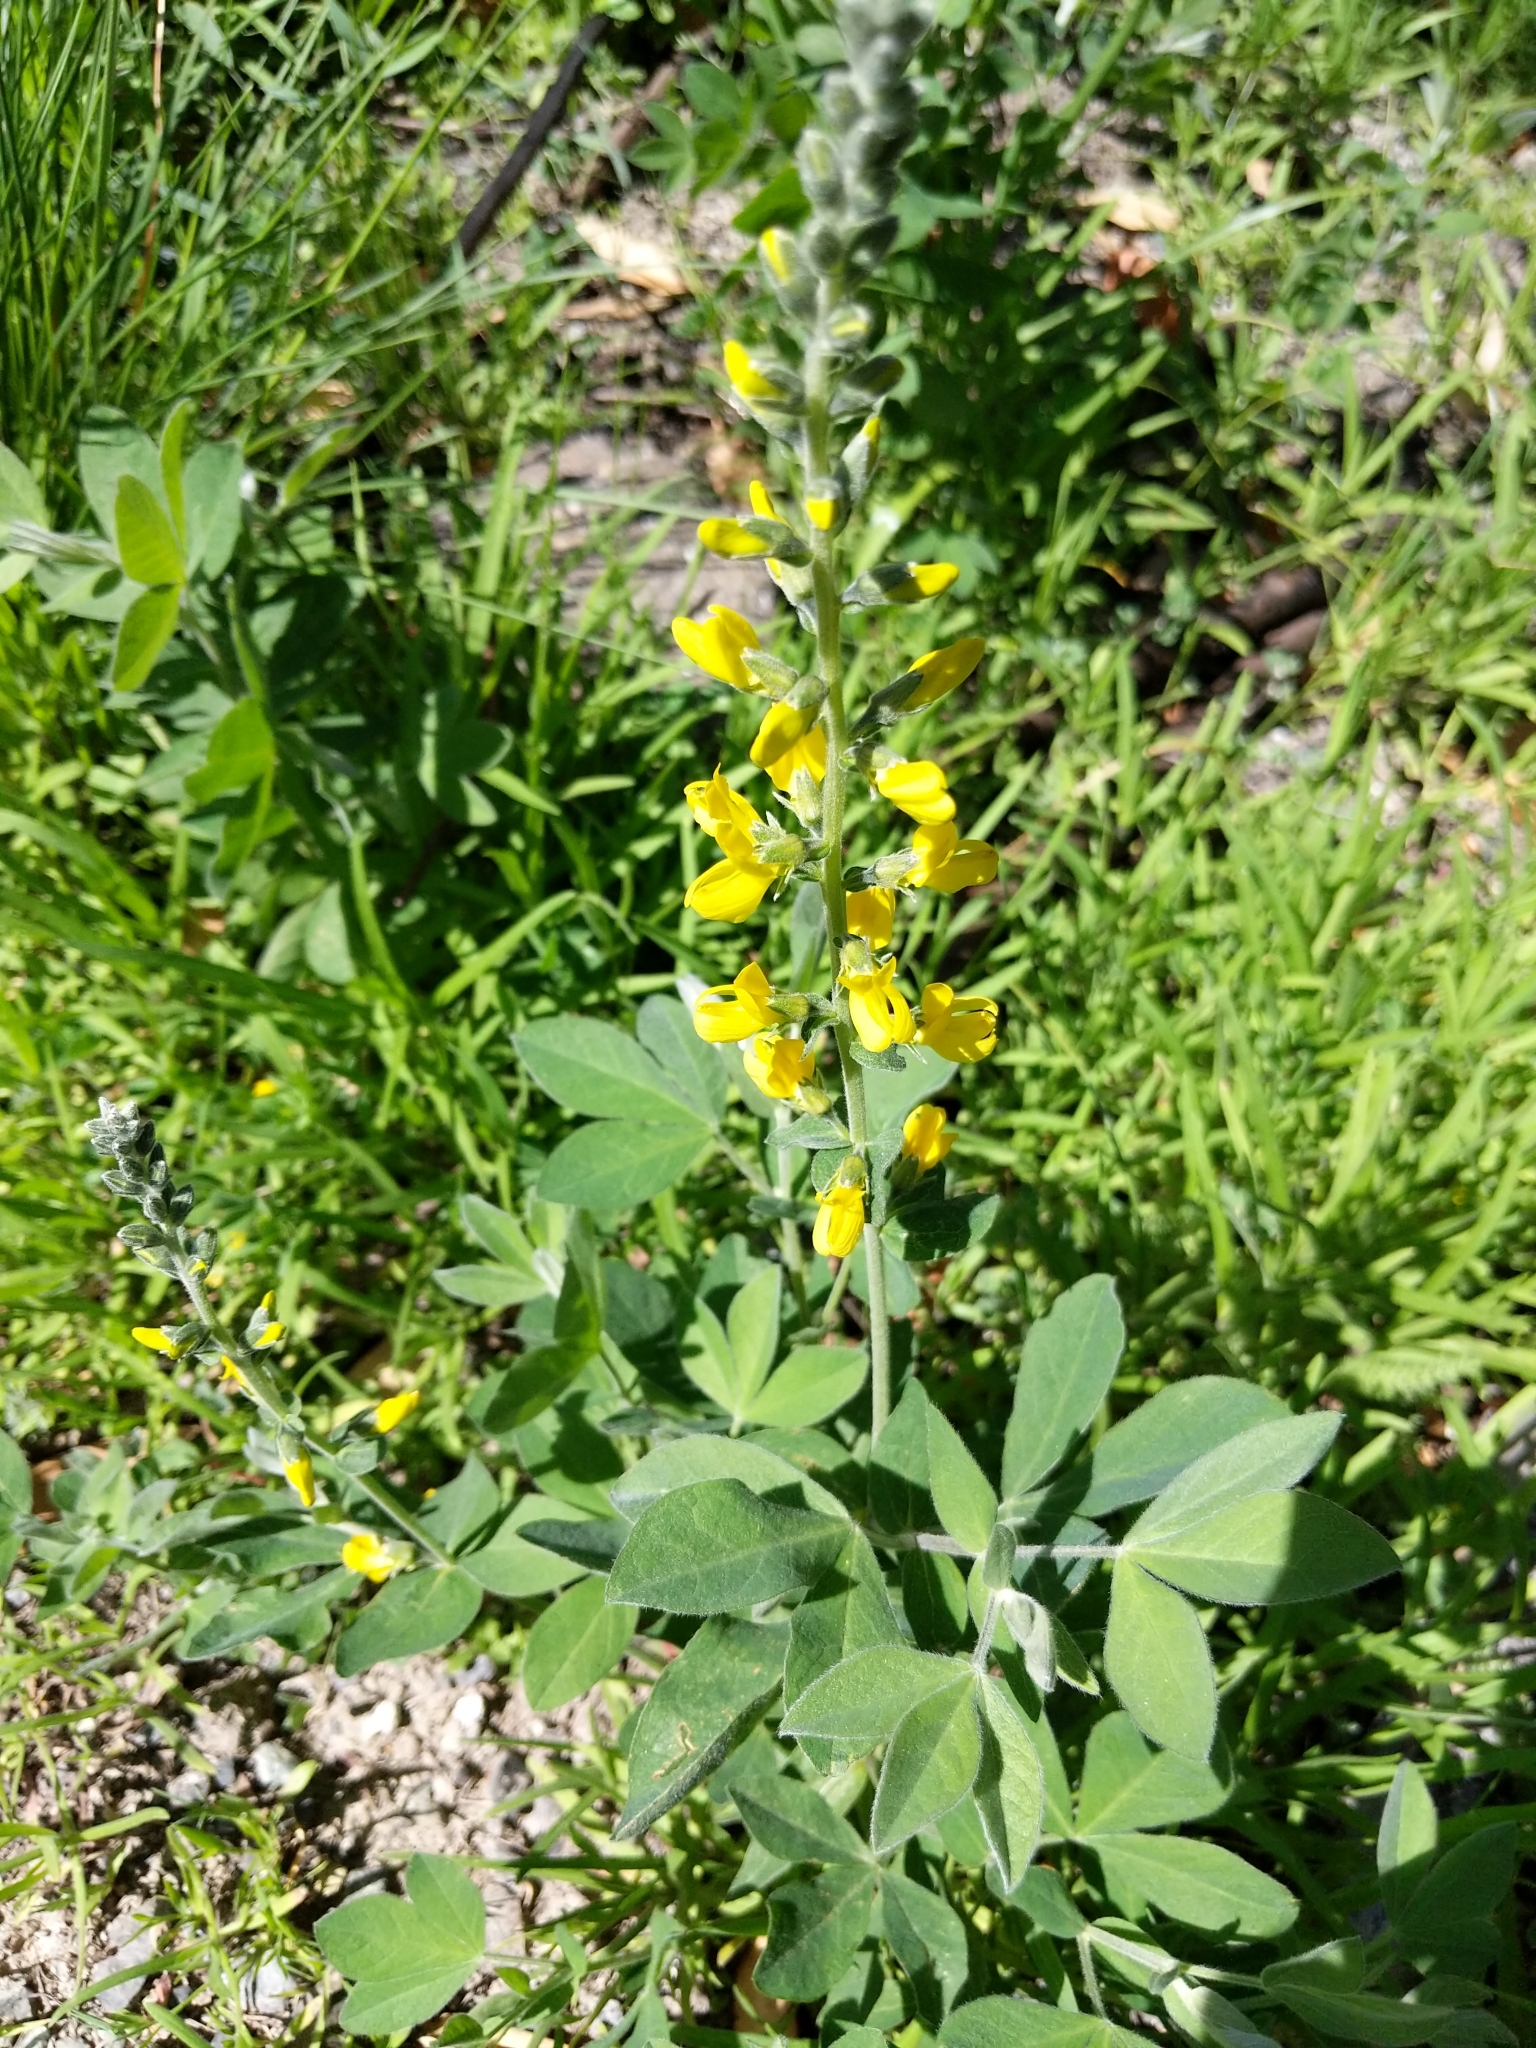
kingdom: Plantae
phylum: Tracheophyta
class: Magnoliopsida
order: Fabales
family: Fabaceae
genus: Thermopsis
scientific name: Thermopsis californica
